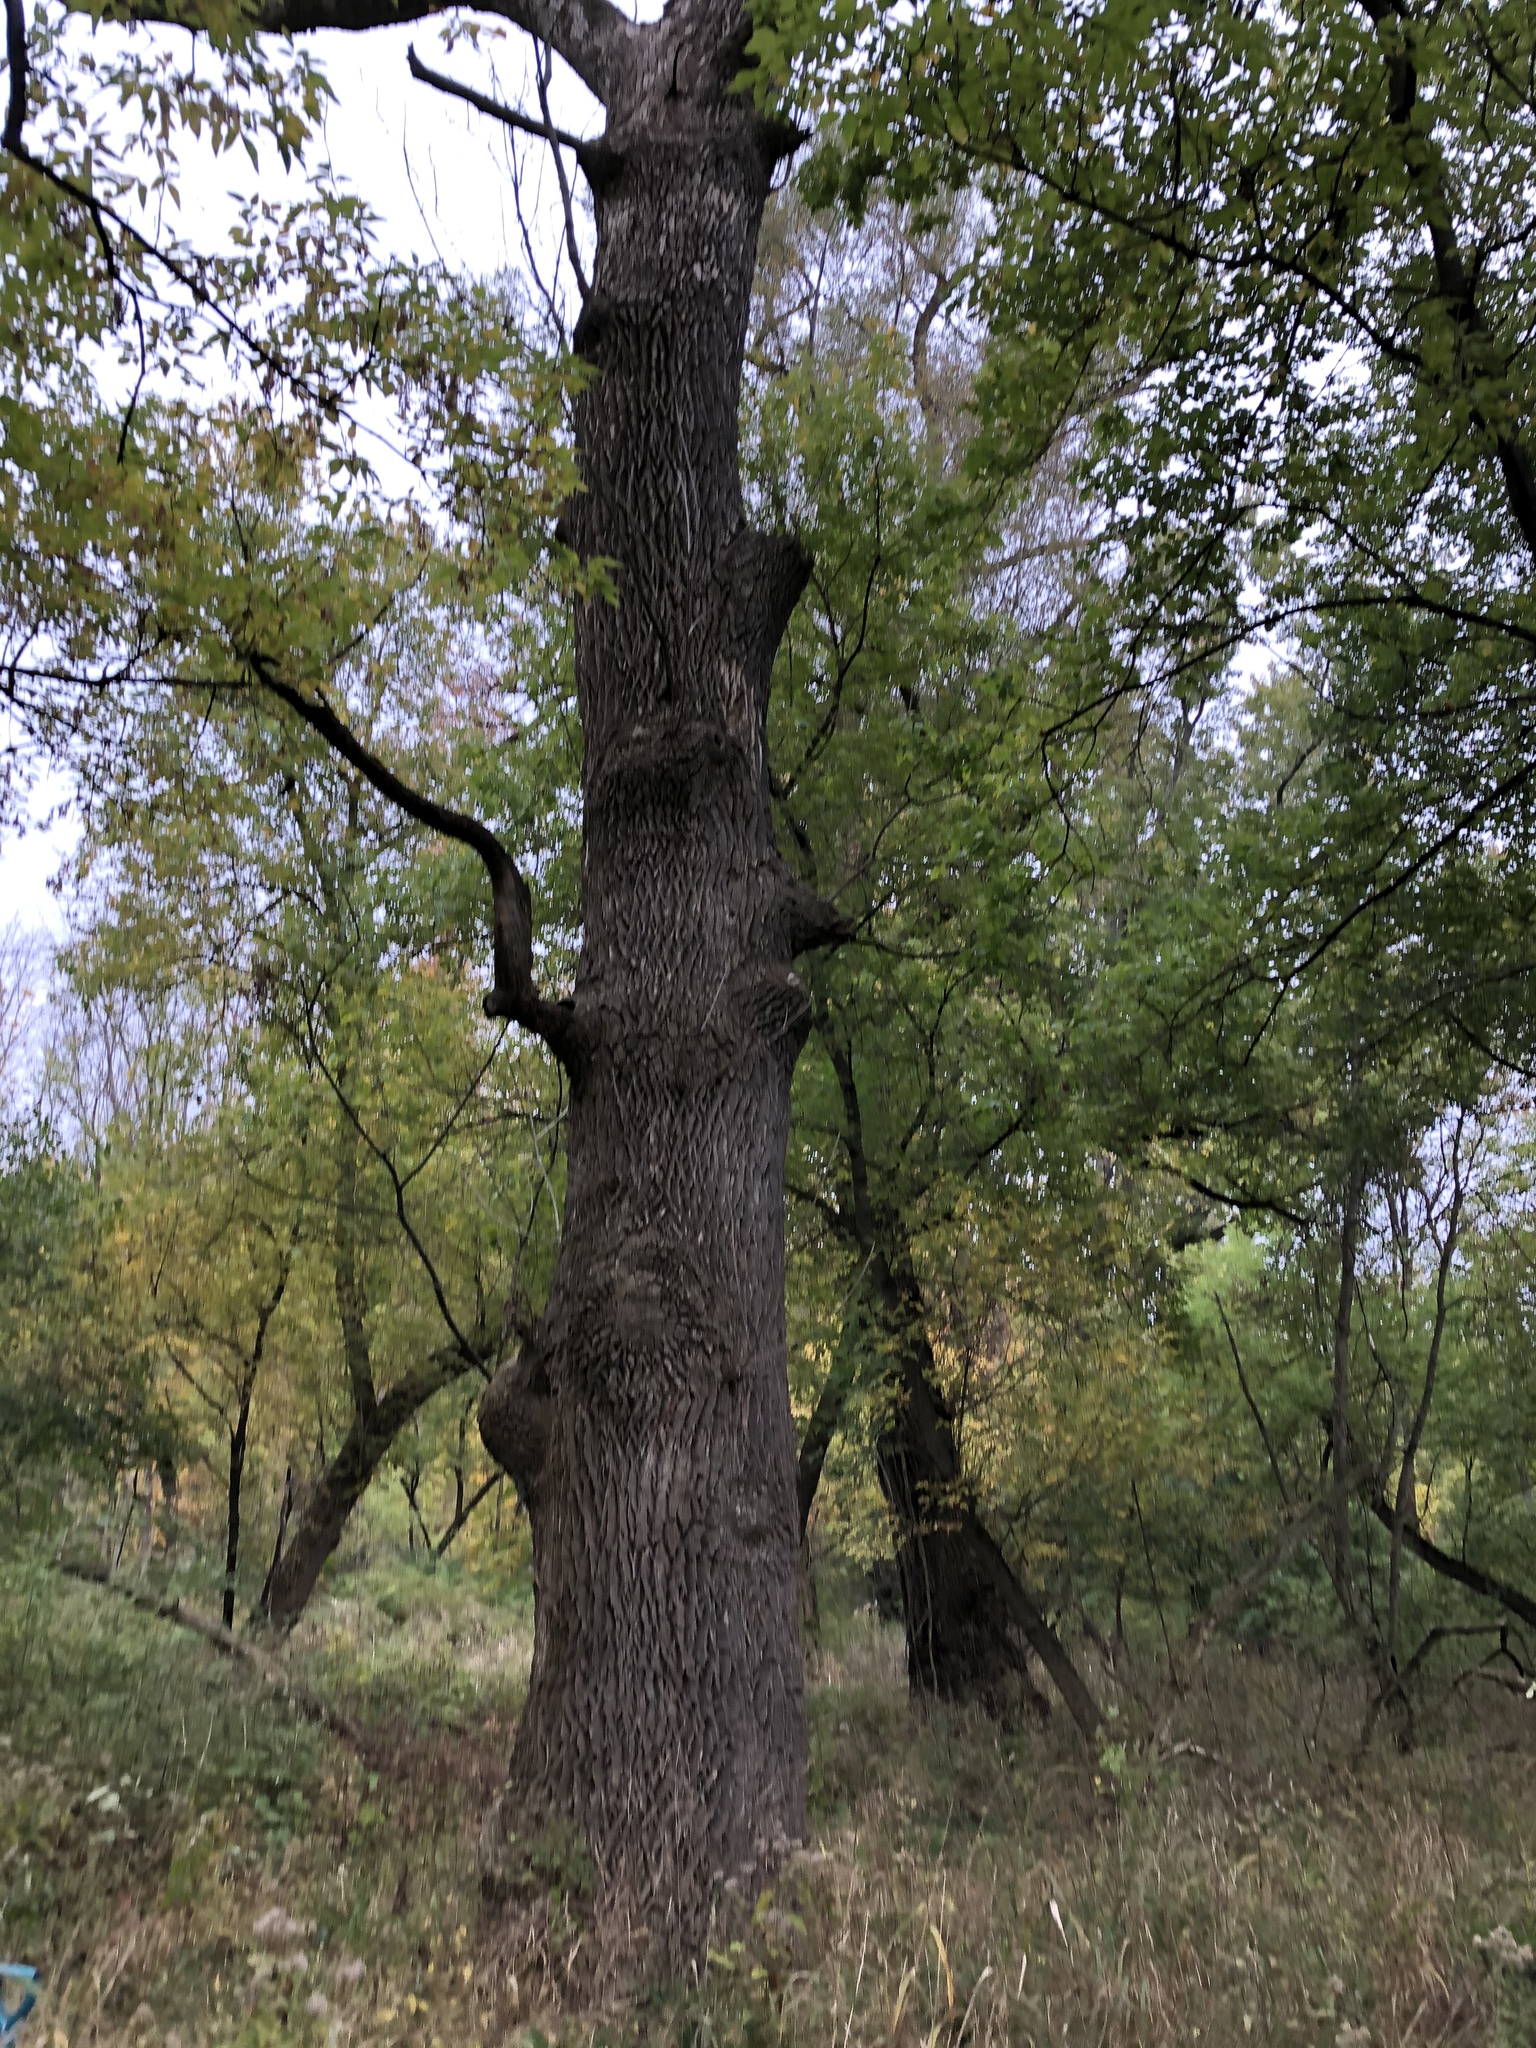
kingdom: Plantae
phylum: Tracheophyta
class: Magnoliopsida
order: Lamiales
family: Oleaceae
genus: Fraxinus
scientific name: Fraxinus pennsylvanica
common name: Green ash
